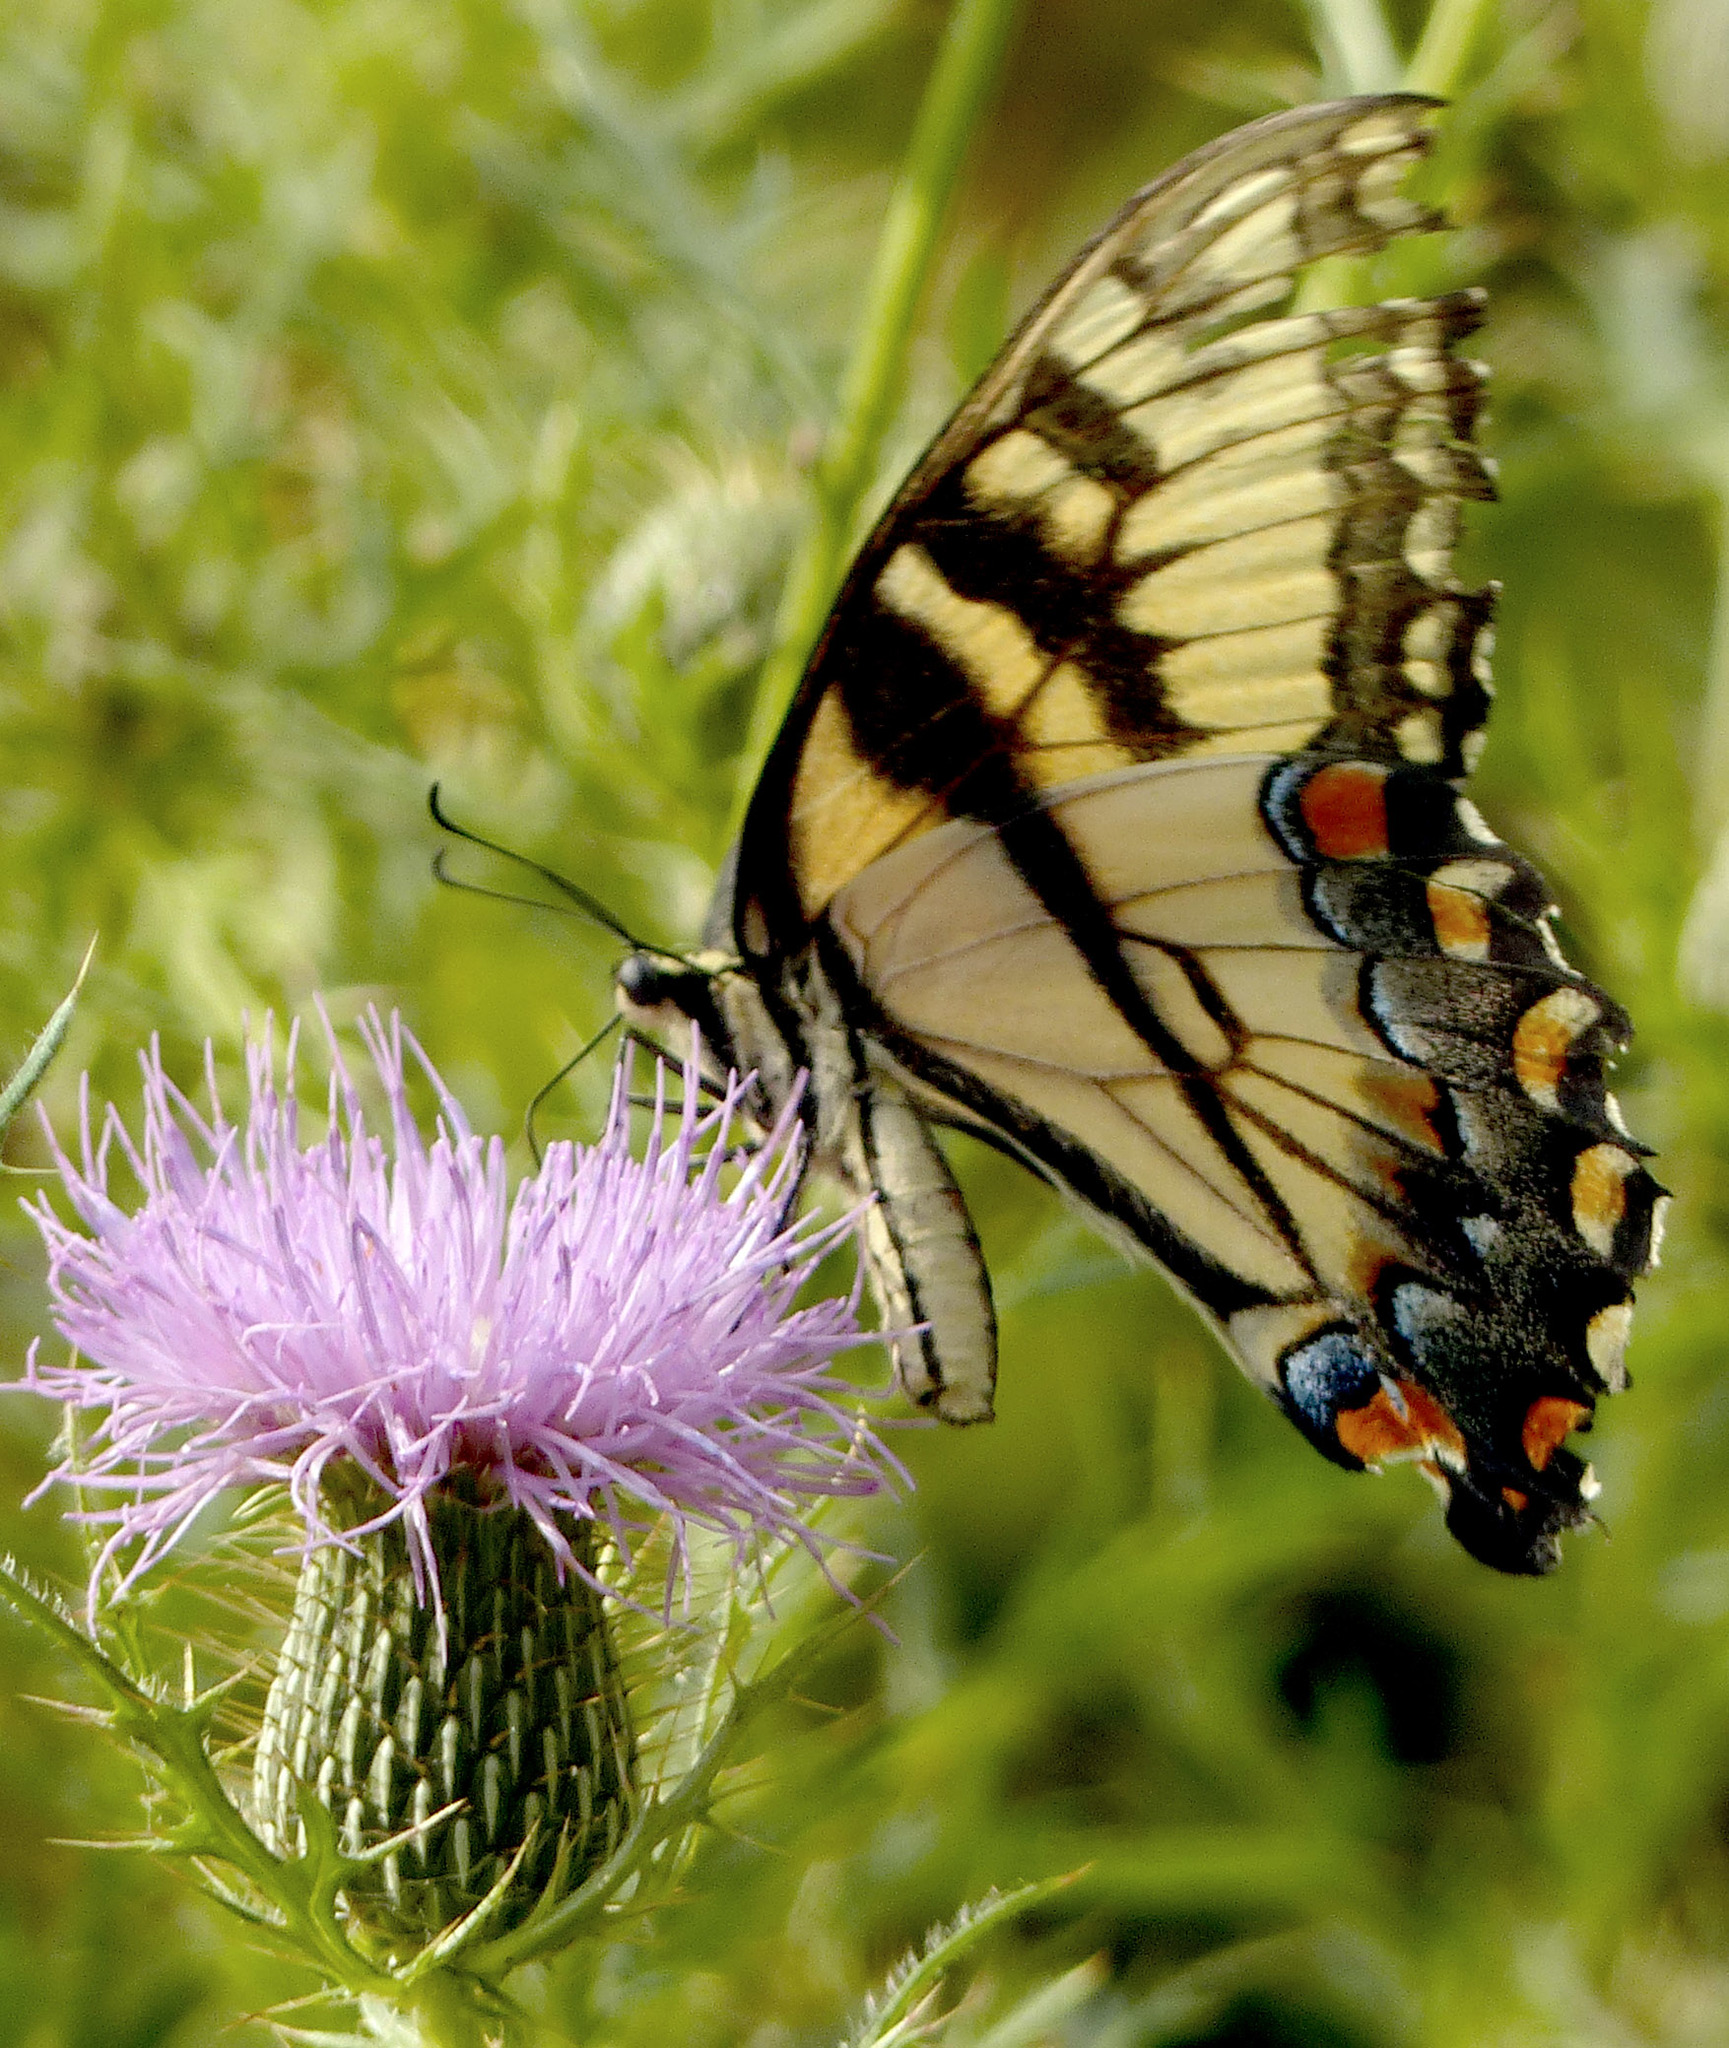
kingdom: Animalia
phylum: Arthropoda
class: Insecta
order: Lepidoptera
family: Papilionidae
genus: Papilio
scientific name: Papilio glaucus
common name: Tiger swallowtail
